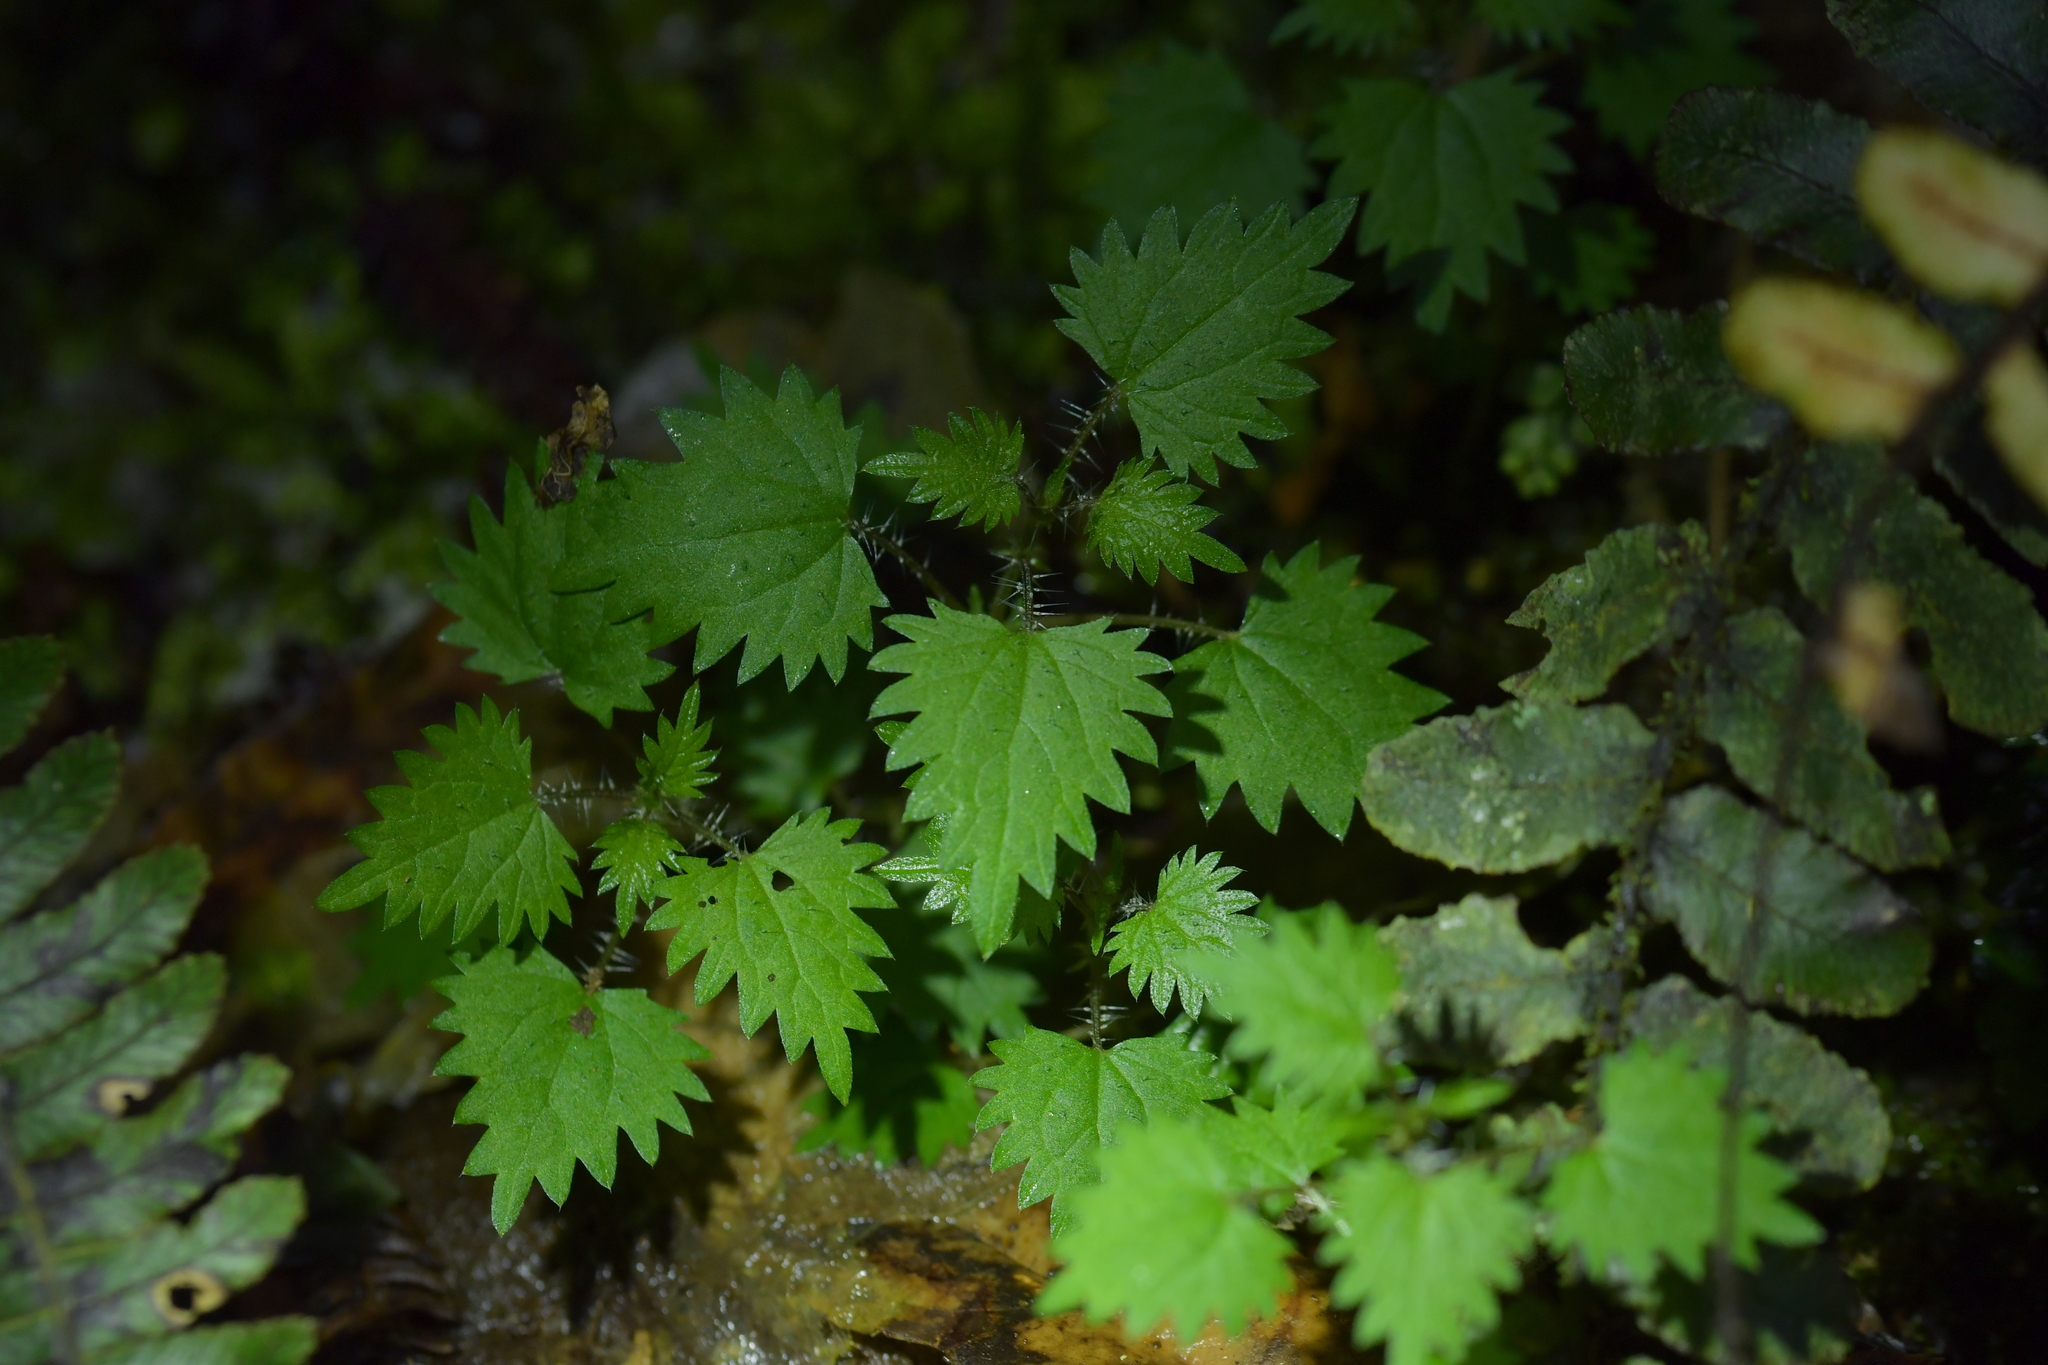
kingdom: Plantae
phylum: Tracheophyta
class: Magnoliopsida
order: Rosales
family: Urticaceae
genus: Urtica
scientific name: Urtica sykesii
